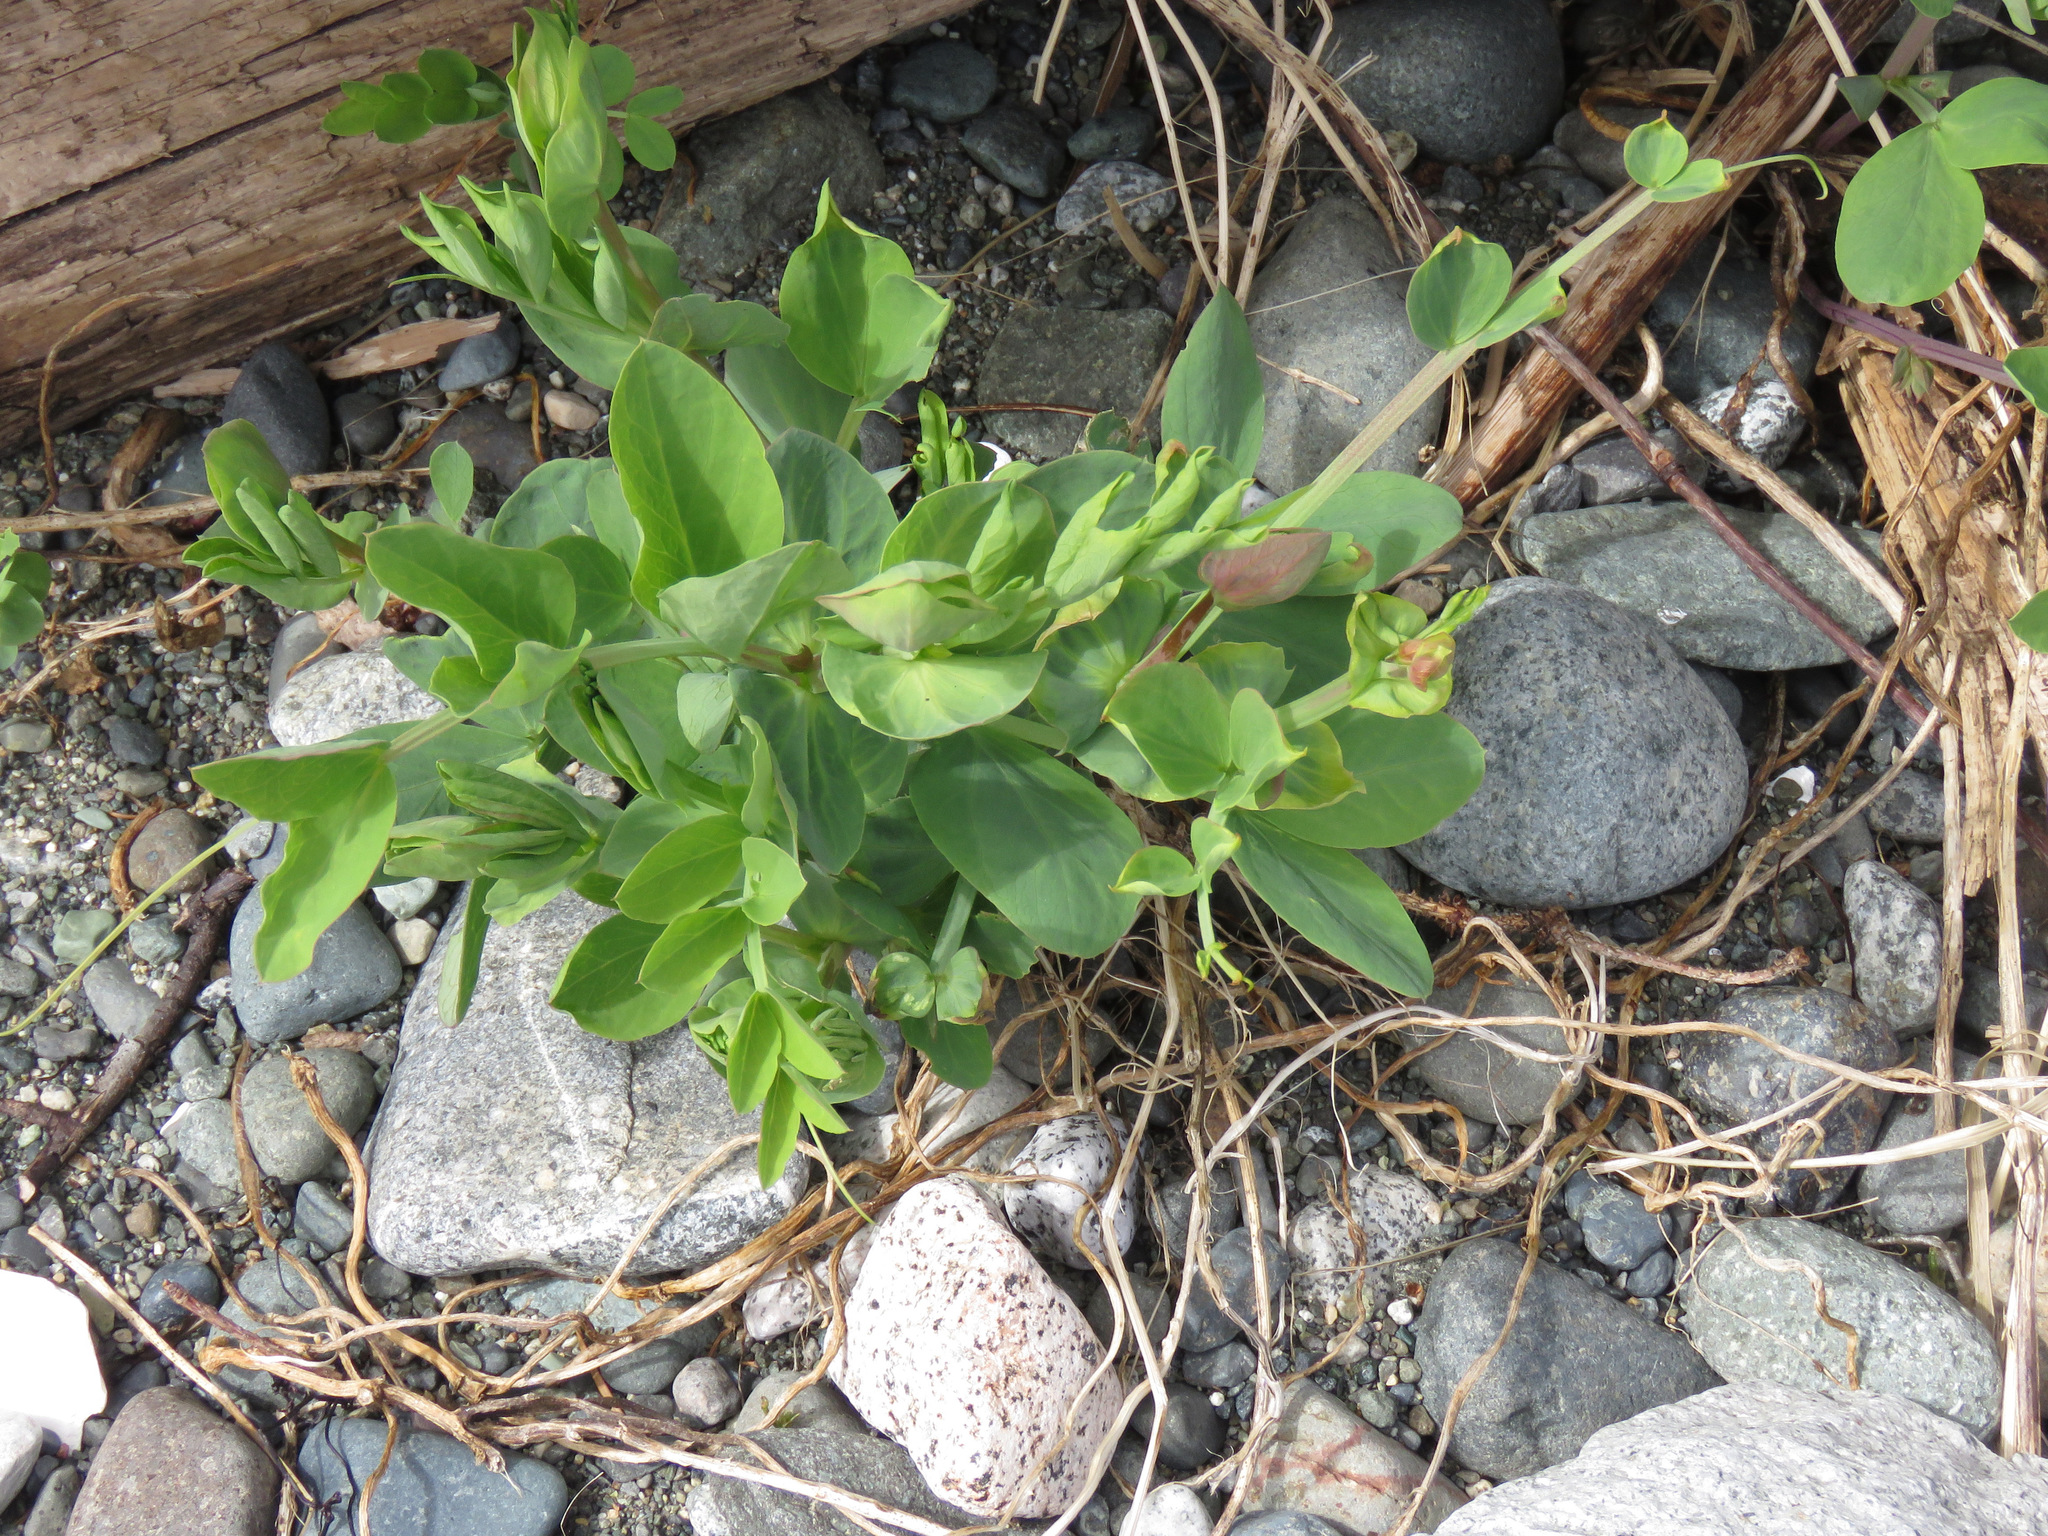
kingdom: Plantae
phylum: Tracheophyta
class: Magnoliopsida
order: Fabales
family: Fabaceae
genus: Lathyrus
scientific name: Lathyrus japonicus
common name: Sea pea
